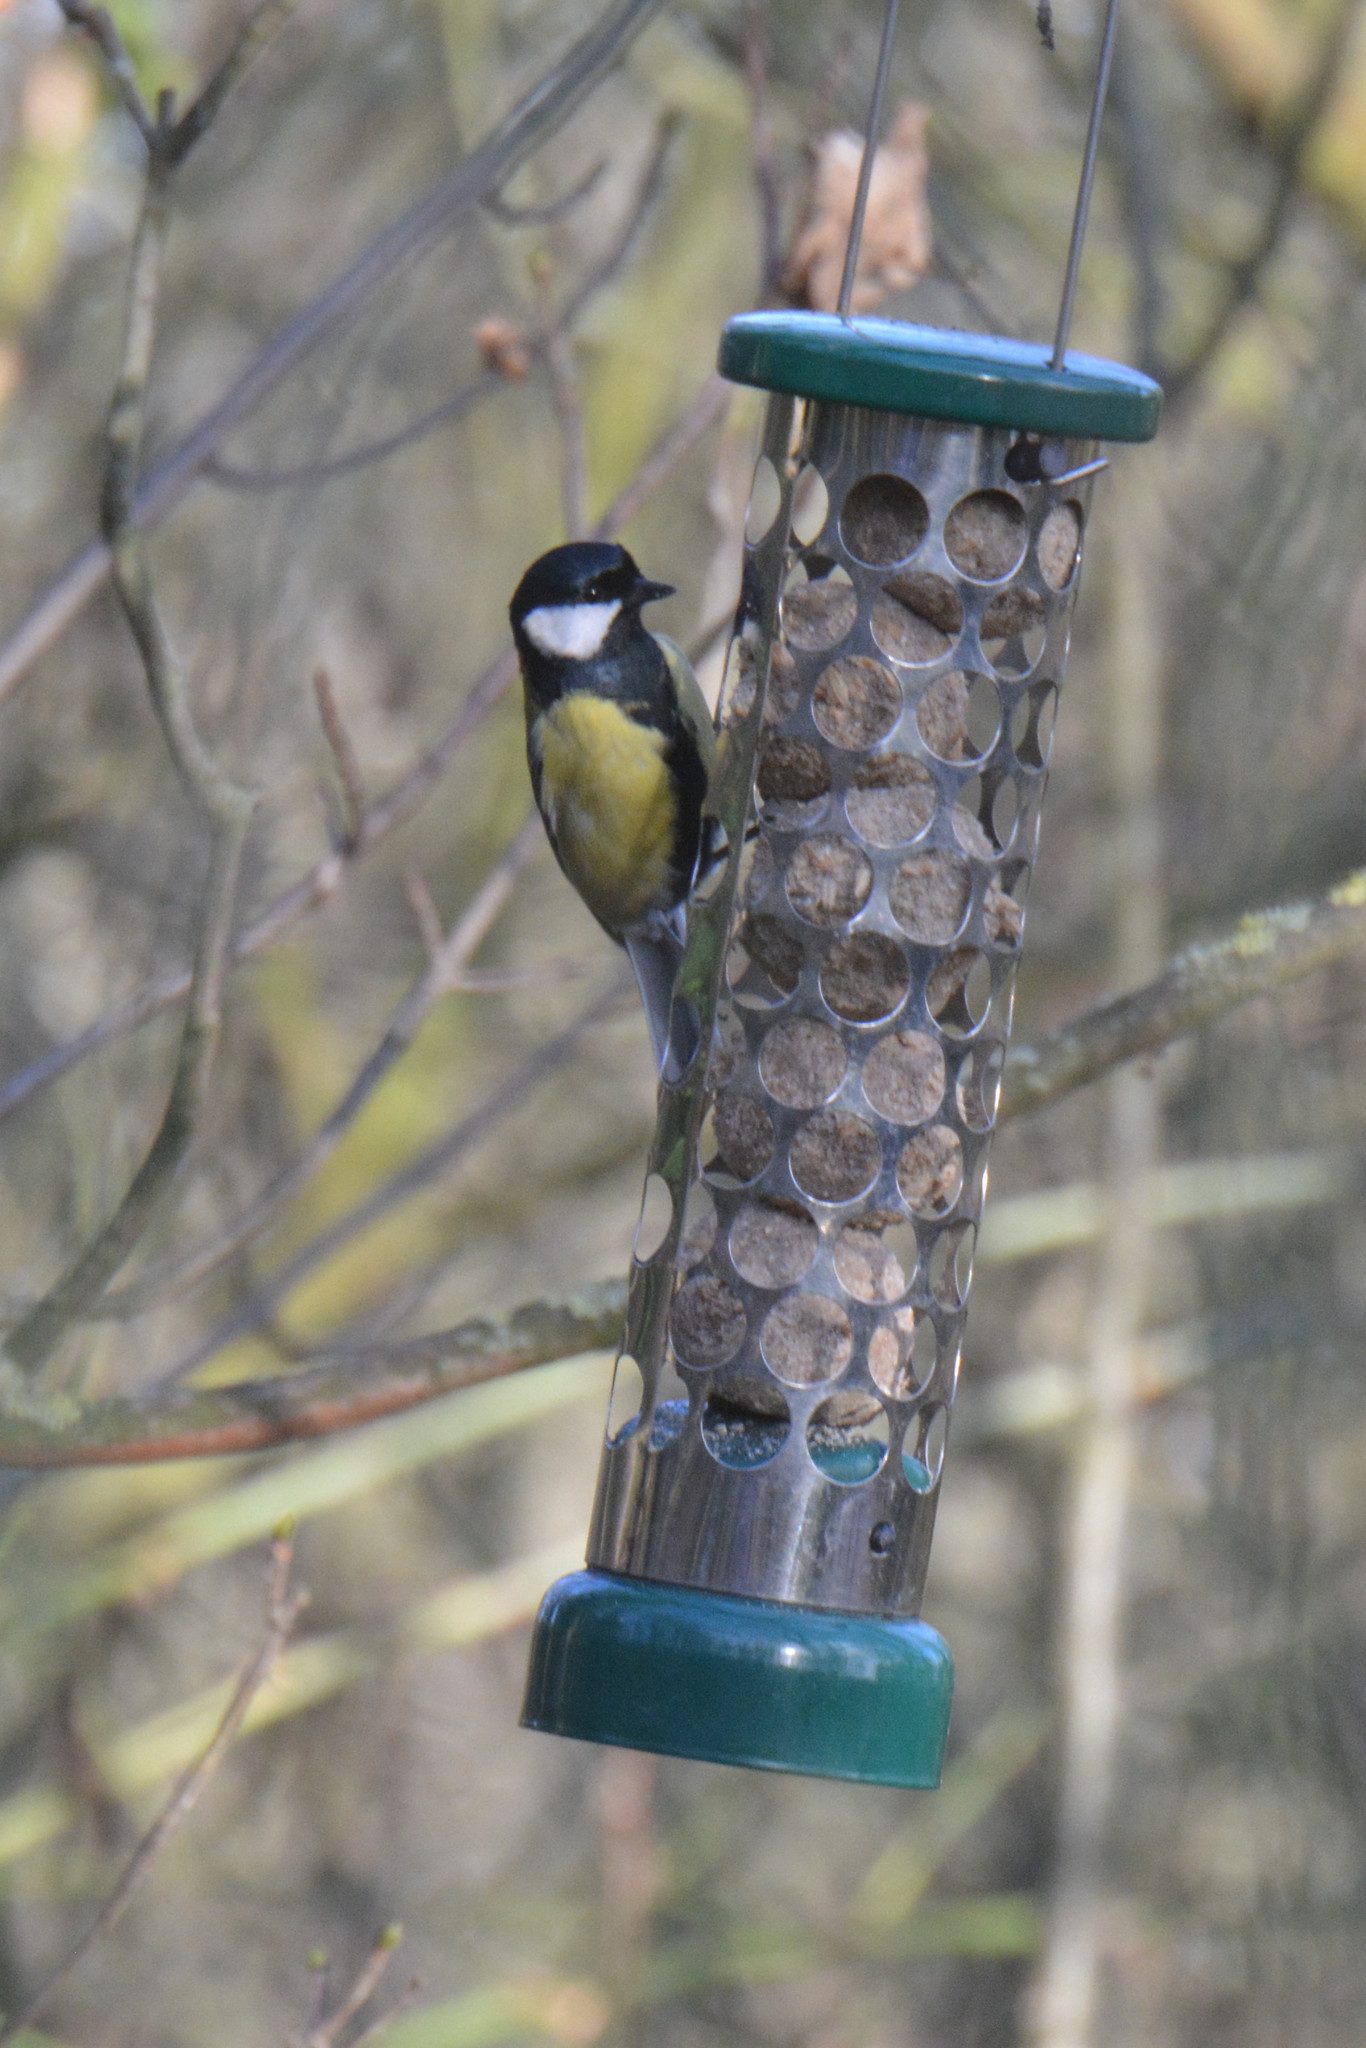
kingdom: Animalia
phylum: Chordata
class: Aves
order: Passeriformes
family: Paridae
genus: Parus
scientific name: Parus major
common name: Great tit
